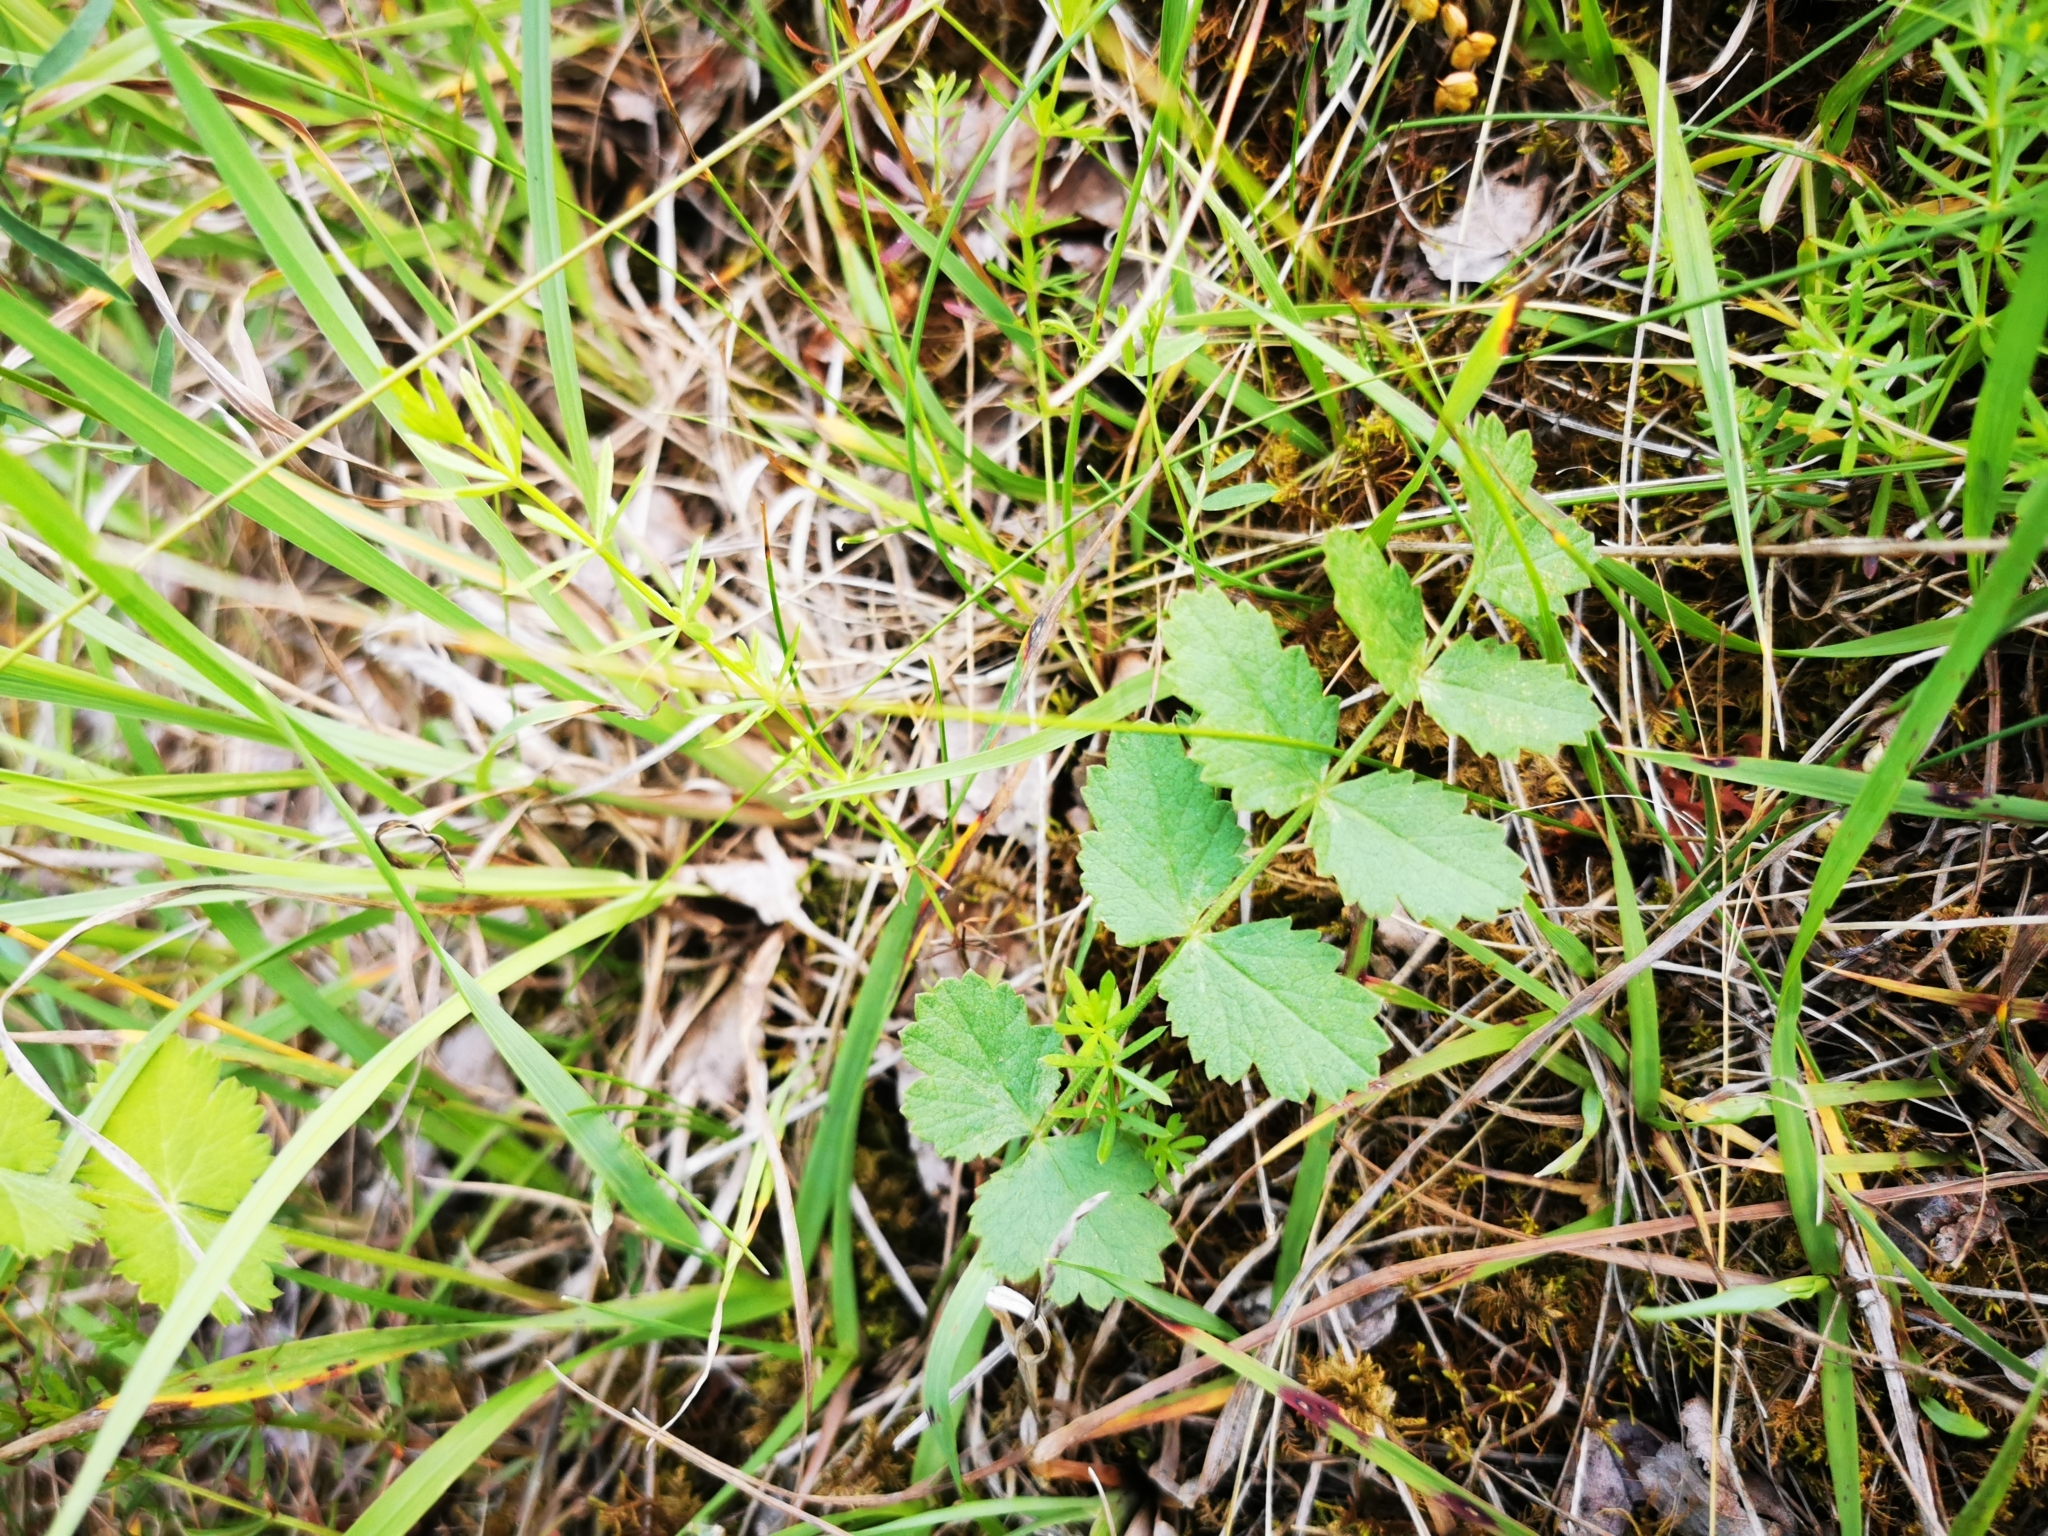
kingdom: Plantae
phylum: Tracheophyta
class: Magnoliopsida
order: Apiales
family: Apiaceae
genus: Pimpinella
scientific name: Pimpinella saxifraga
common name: Burnet-saxifrage
